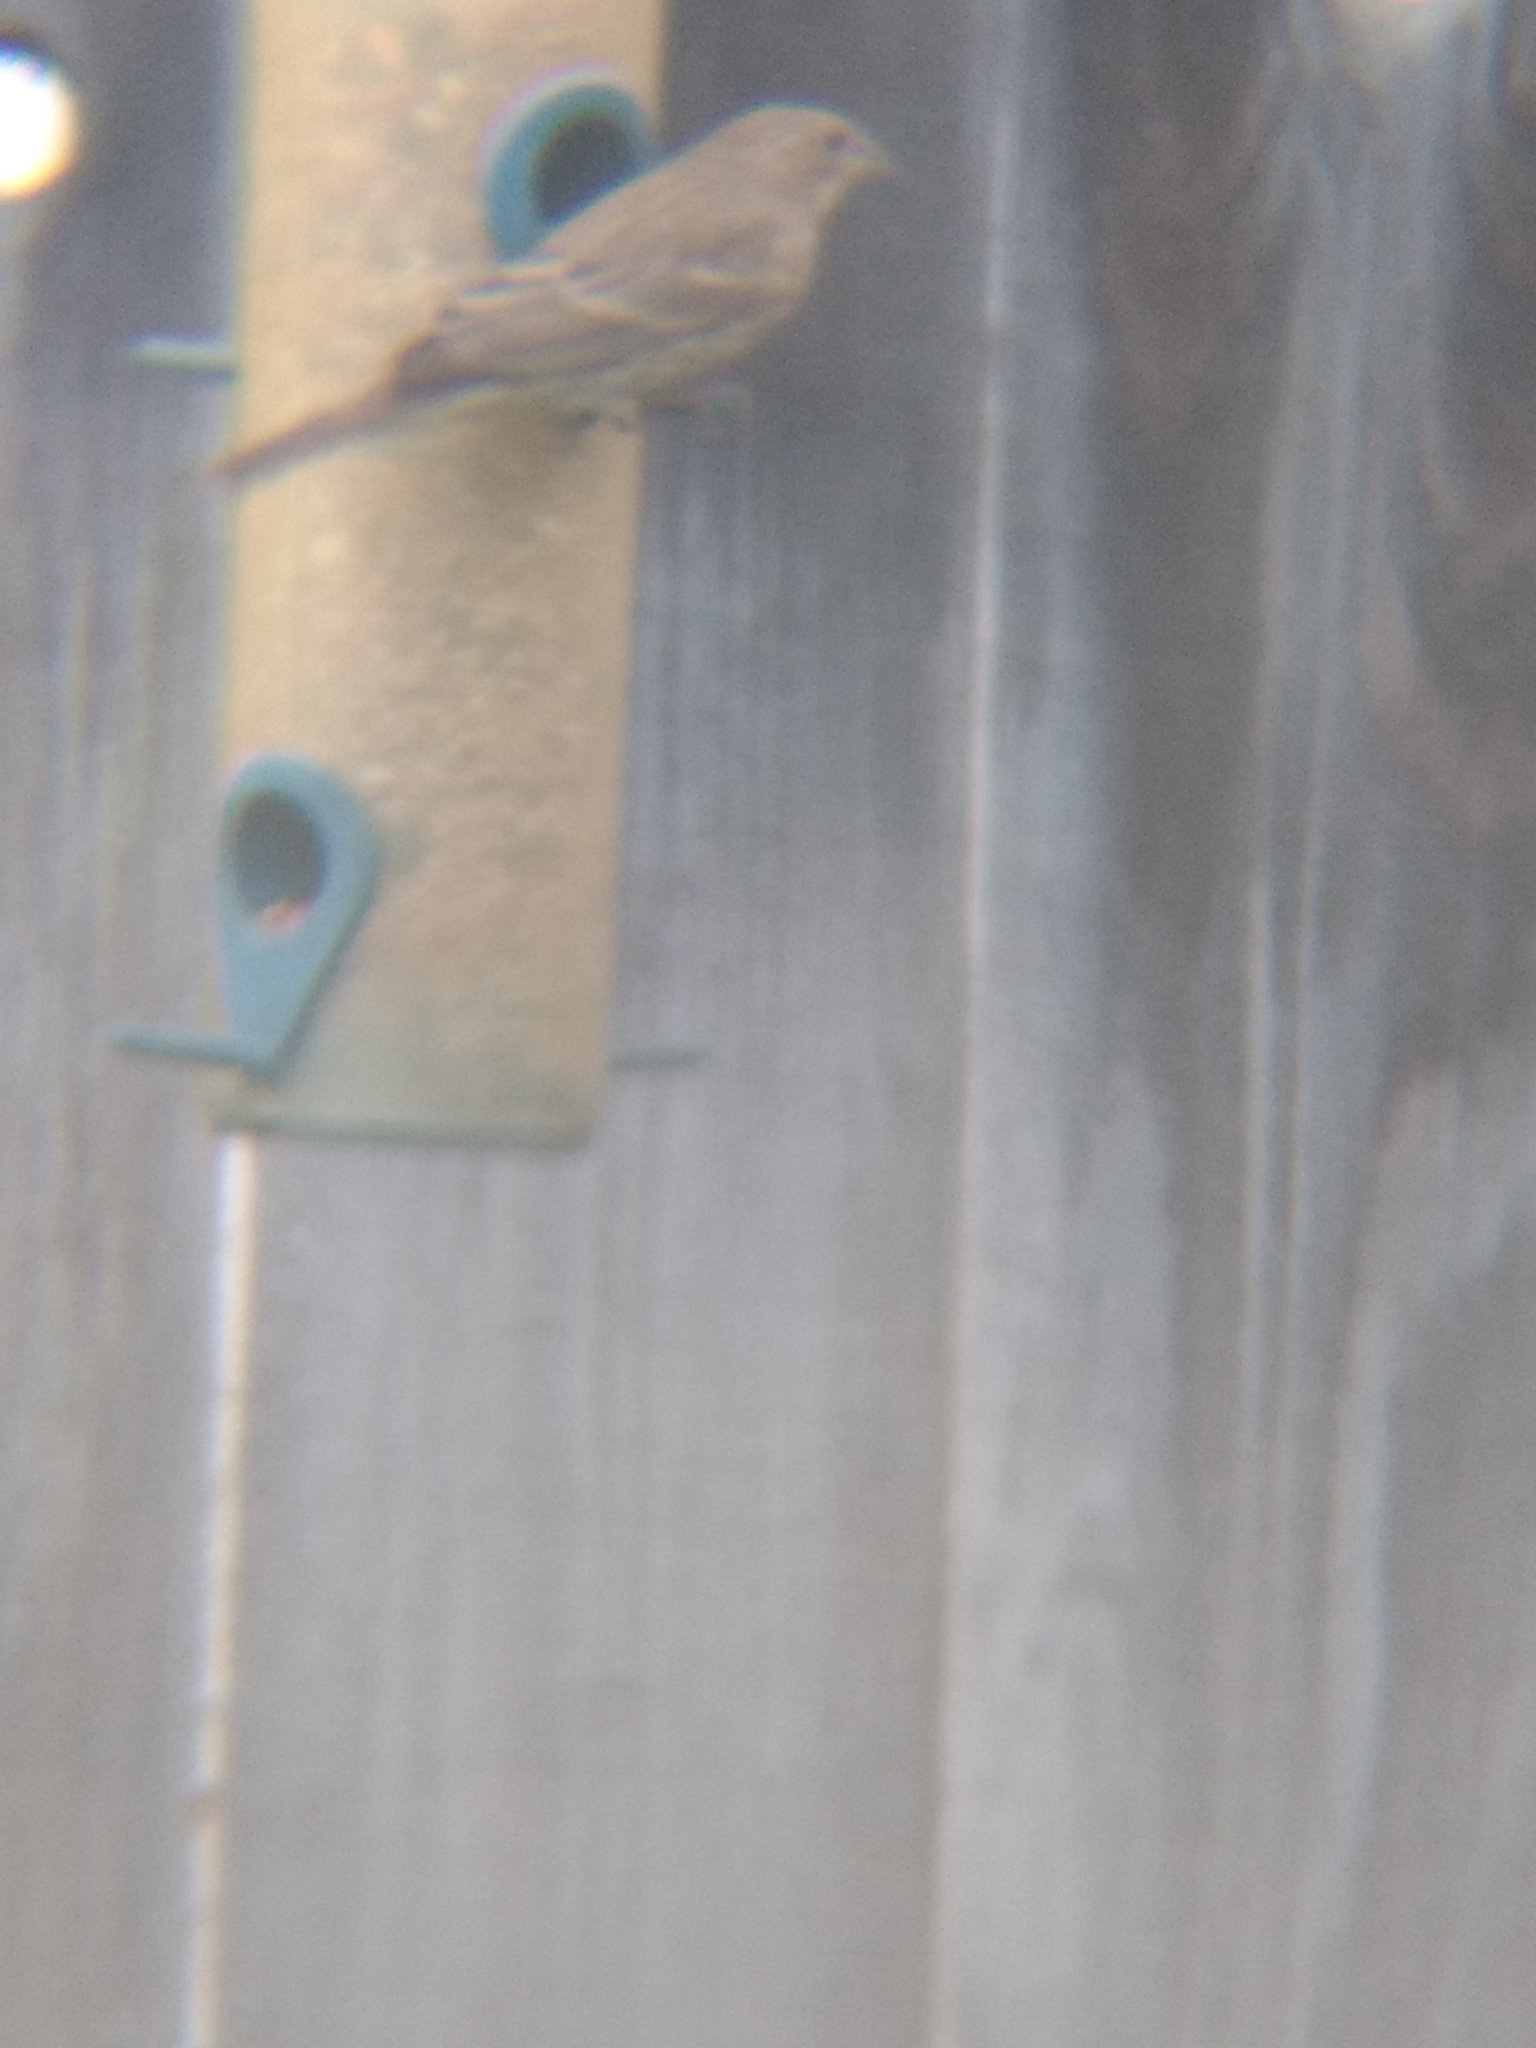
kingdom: Animalia
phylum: Chordata
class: Aves
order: Passeriformes
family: Fringillidae
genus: Haemorhous
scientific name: Haemorhous mexicanus
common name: House finch
